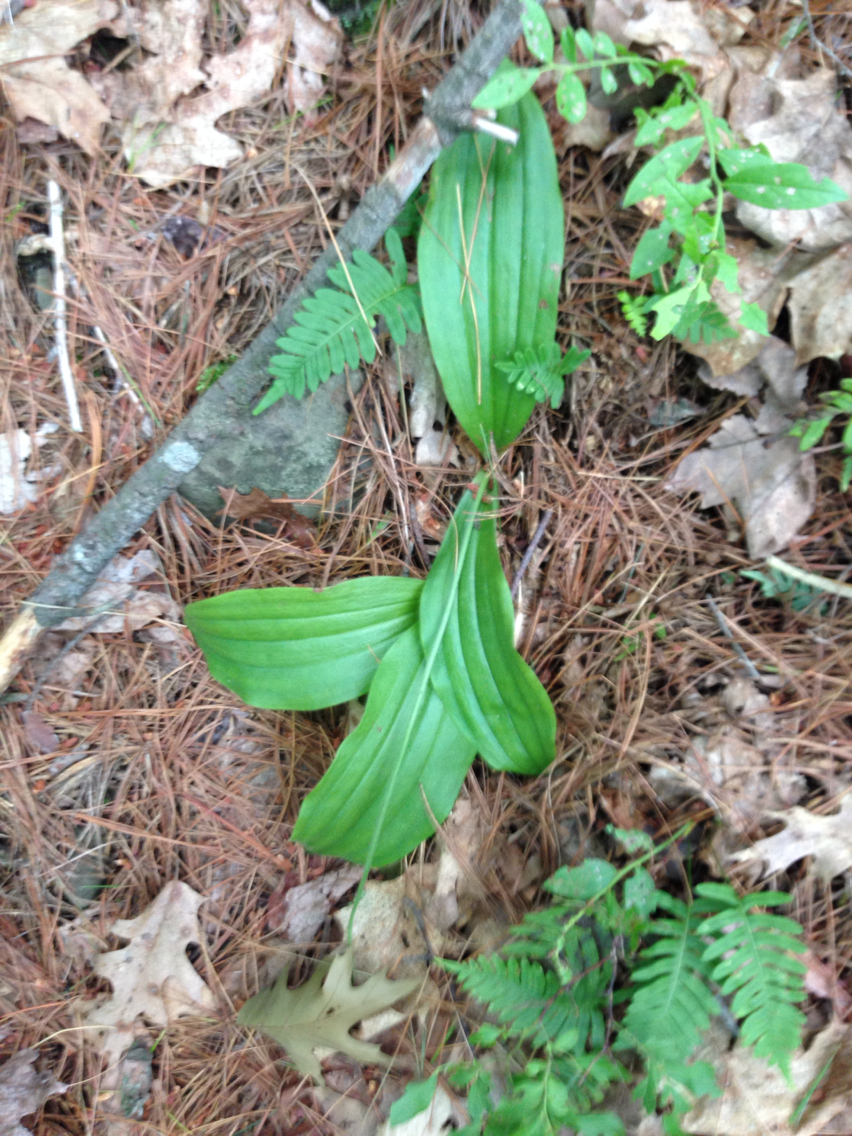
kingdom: Plantae
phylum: Tracheophyta
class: Liliopsida
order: Asparagales
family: Orchidaceae
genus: Cypripedium
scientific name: Cypripedium acaule
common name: Pink lady's-slipper
